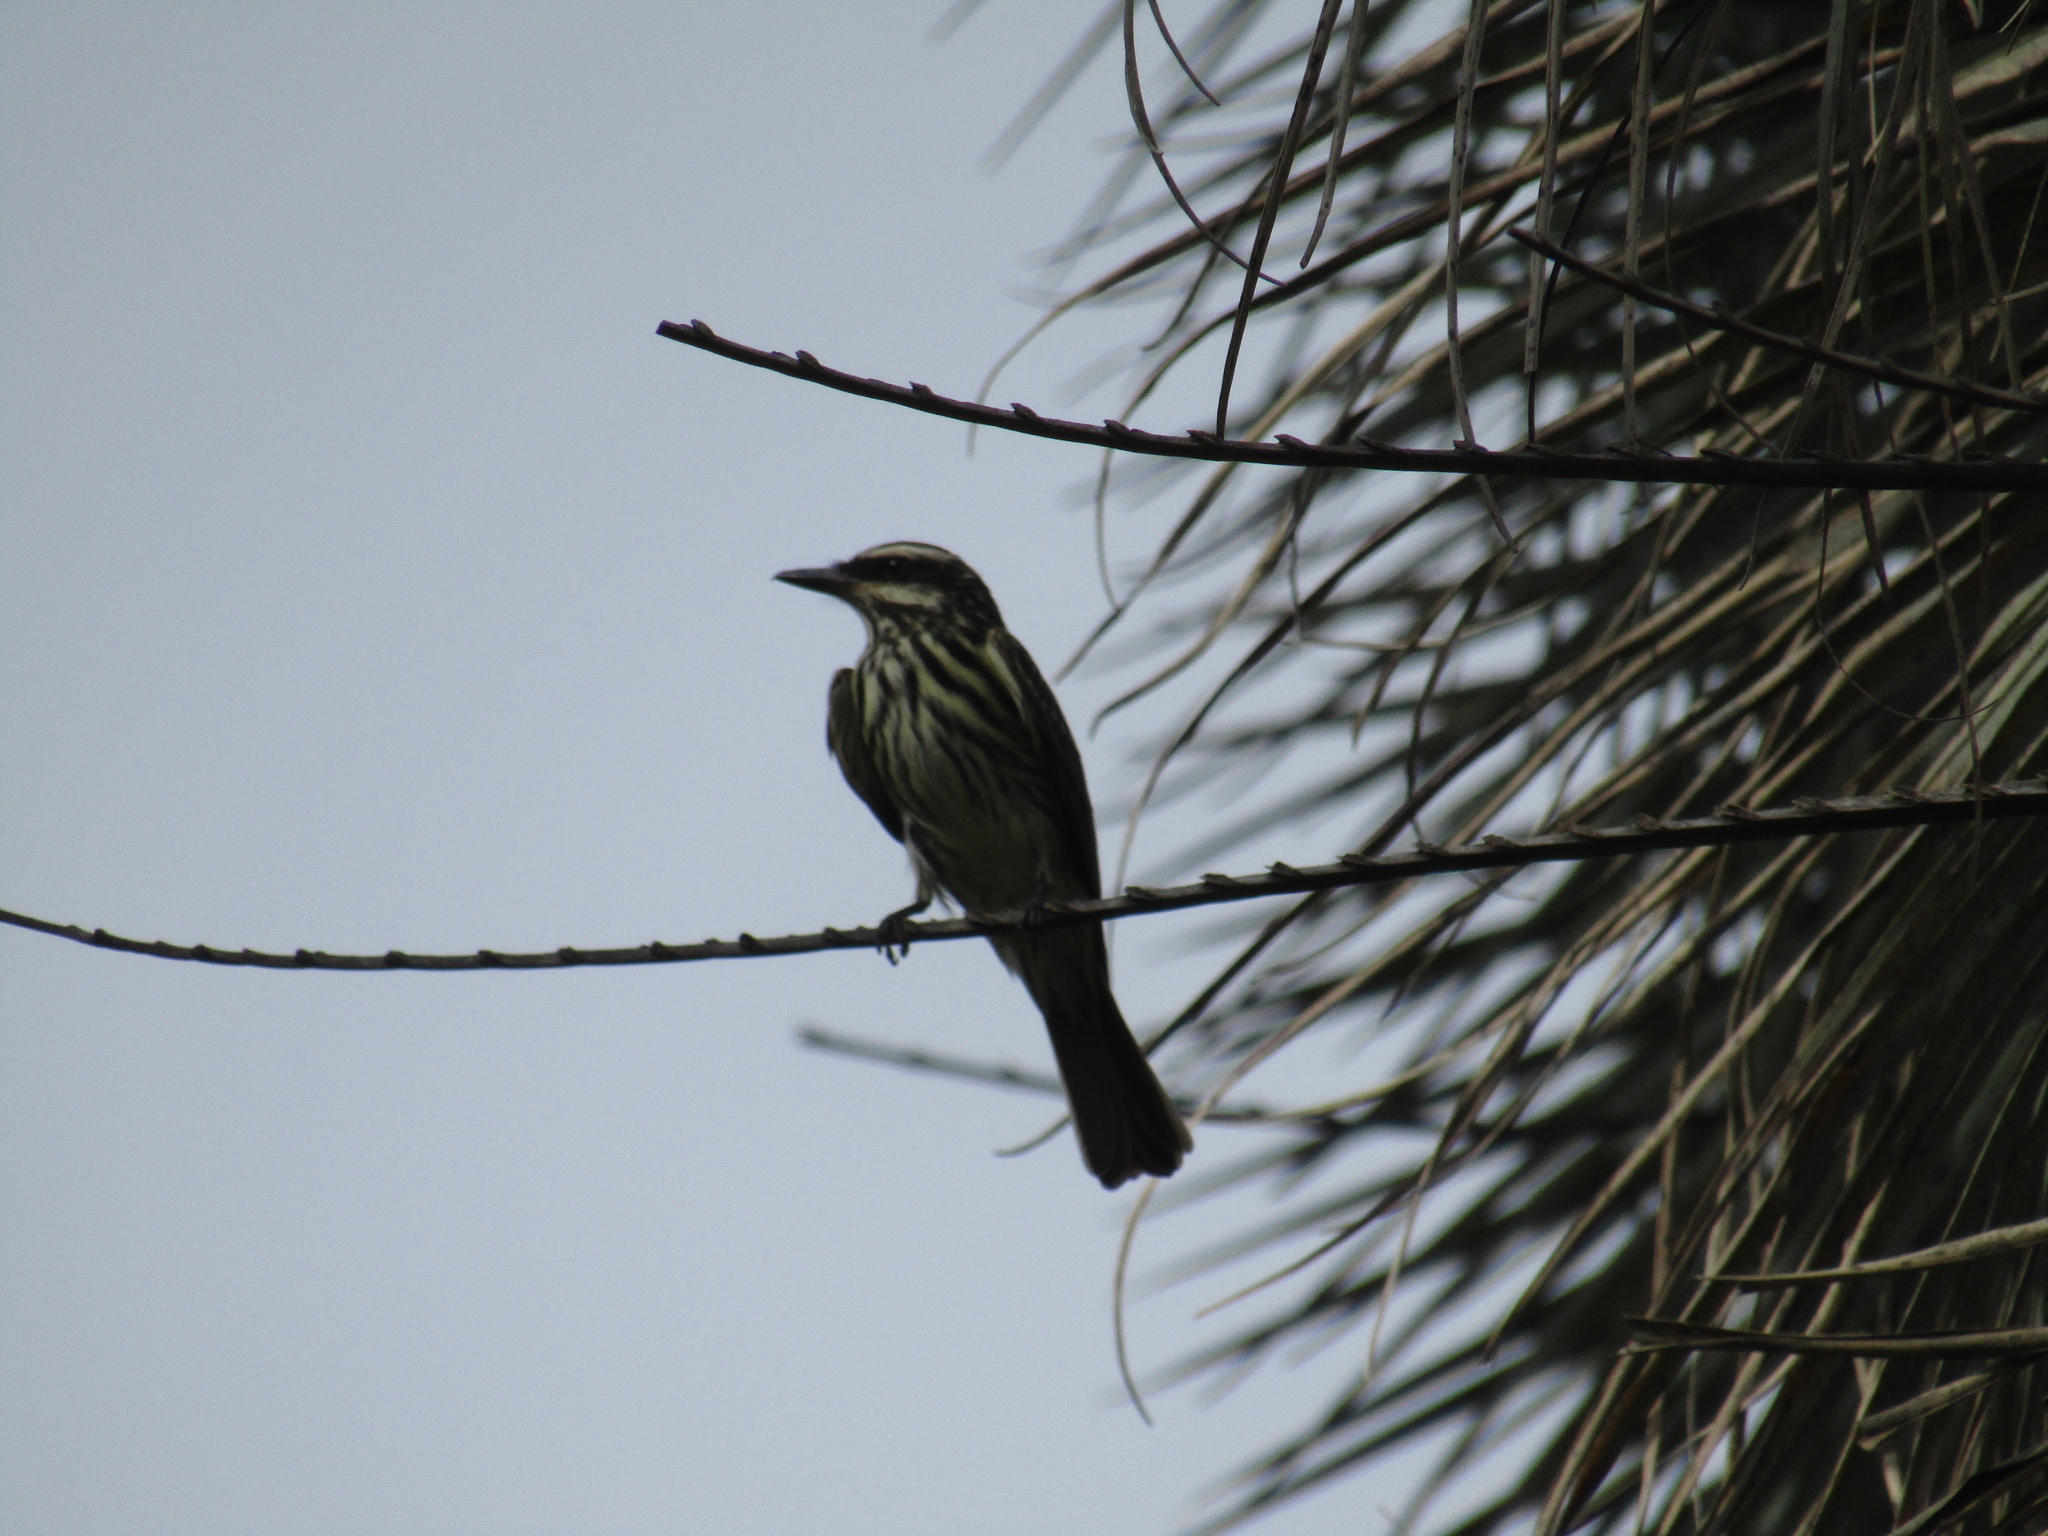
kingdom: Animalia
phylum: Chordata
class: Aves
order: Passeriformes
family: Tyrannidae
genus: Myiodynastes
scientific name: Myiodynastes maculatus
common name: Streaked flycatcher
